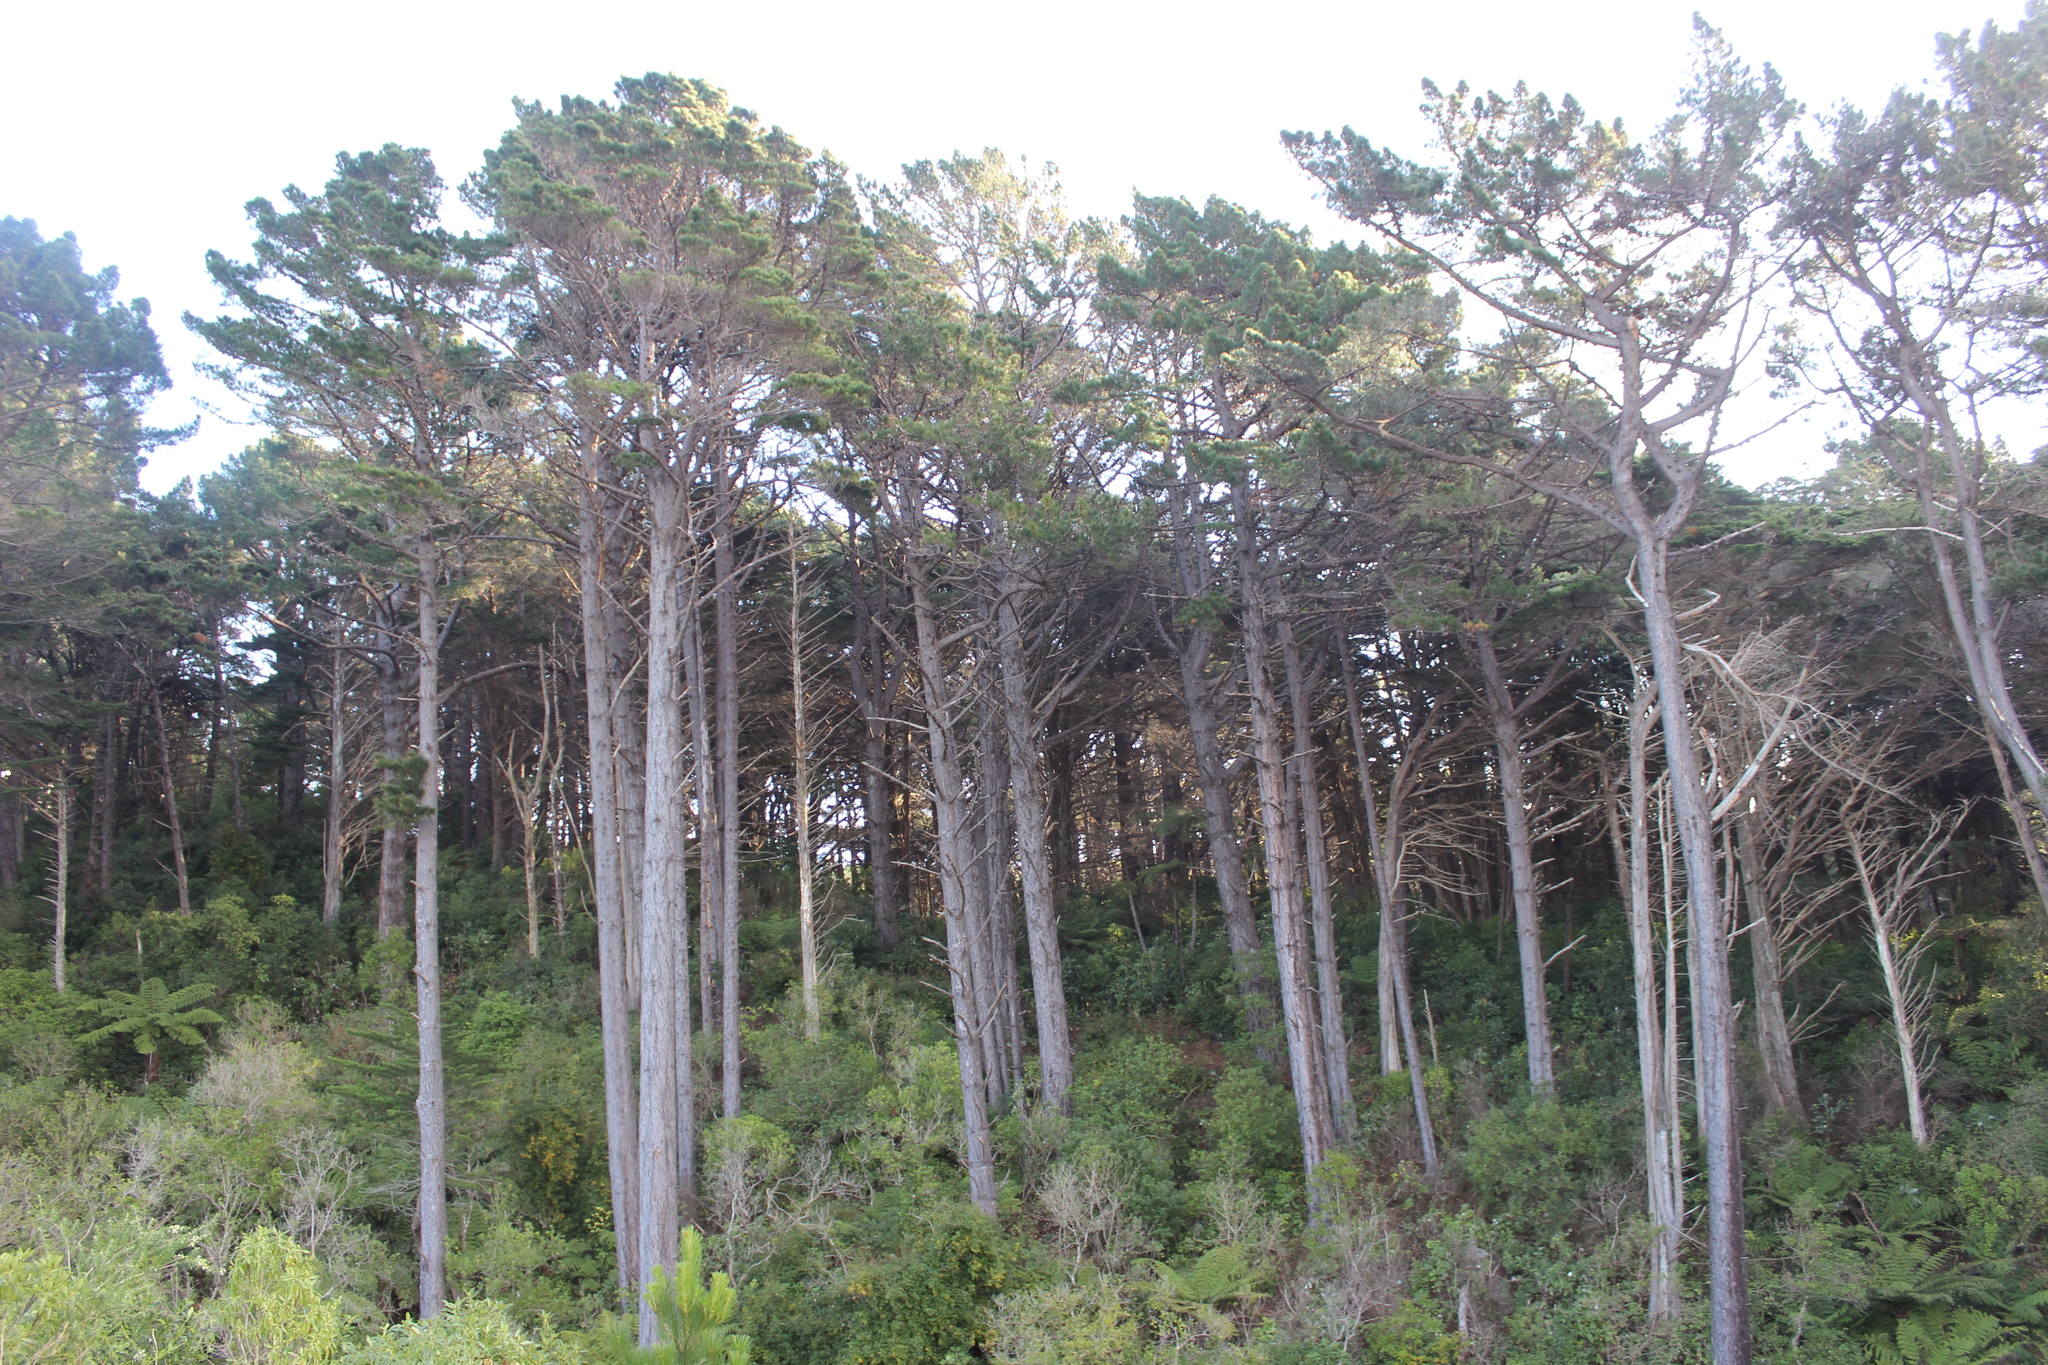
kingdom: Plantae
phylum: Tracheophyta
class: Pinopsida
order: Pinales
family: Pinaceae
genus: Pinus
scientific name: Pinus radiata
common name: Monterey pine
